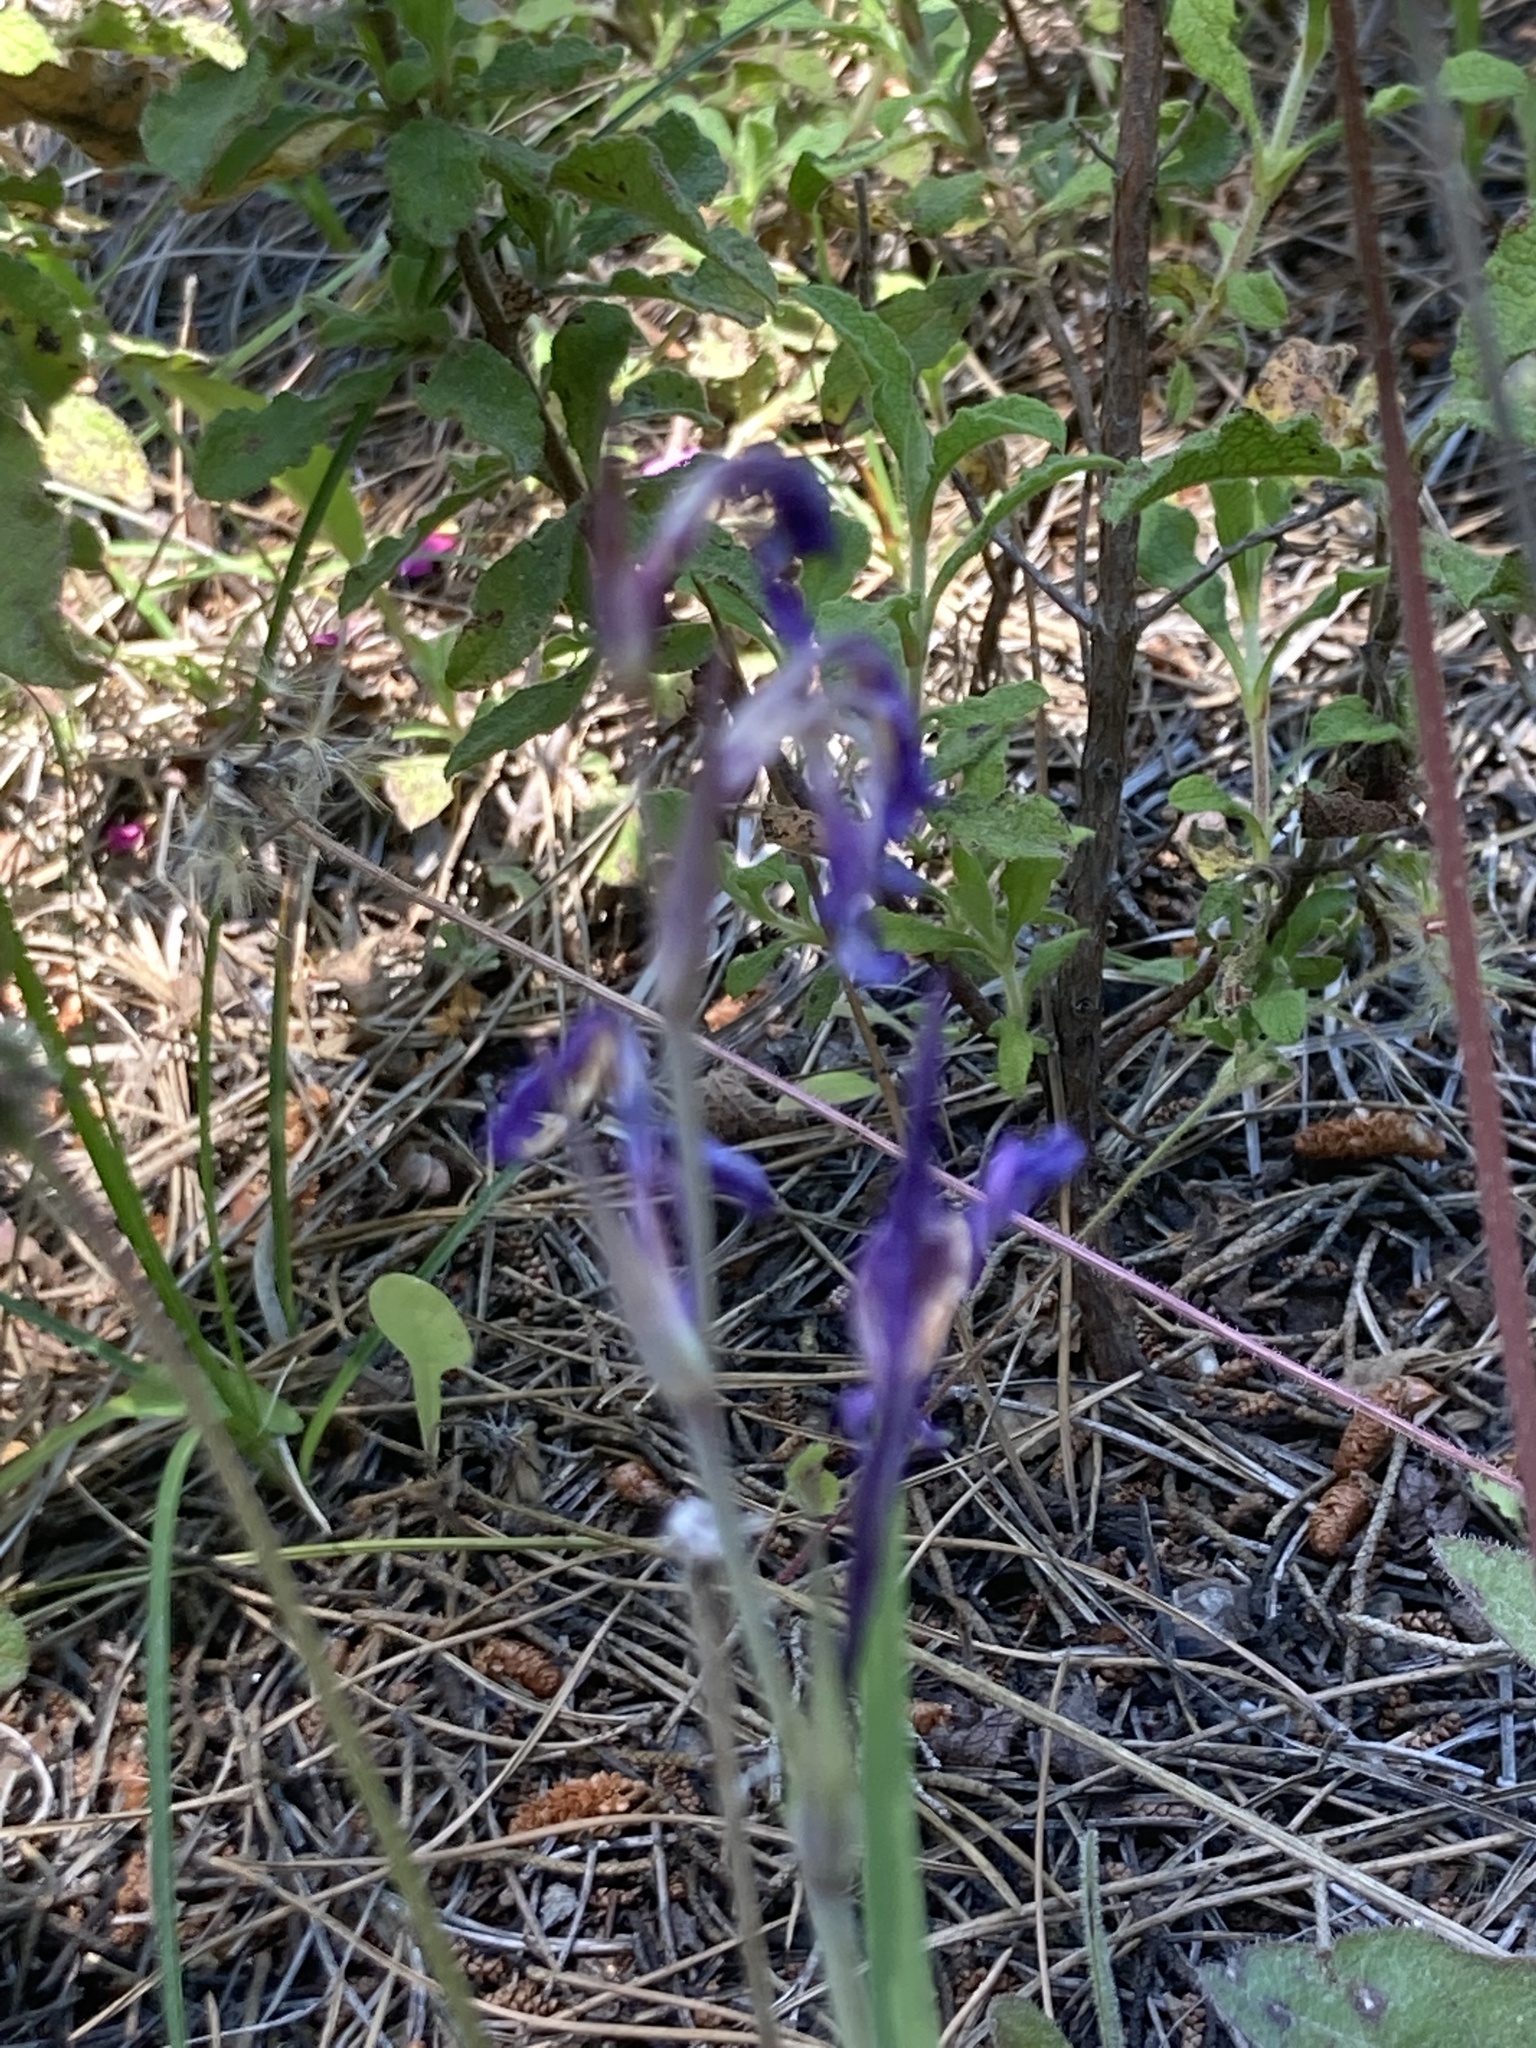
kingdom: Plantae
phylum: Tracheophyta
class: Liliopsida
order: Asparagales
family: Iridaceae
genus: Moraea
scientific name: Moraea sisyrinchium
